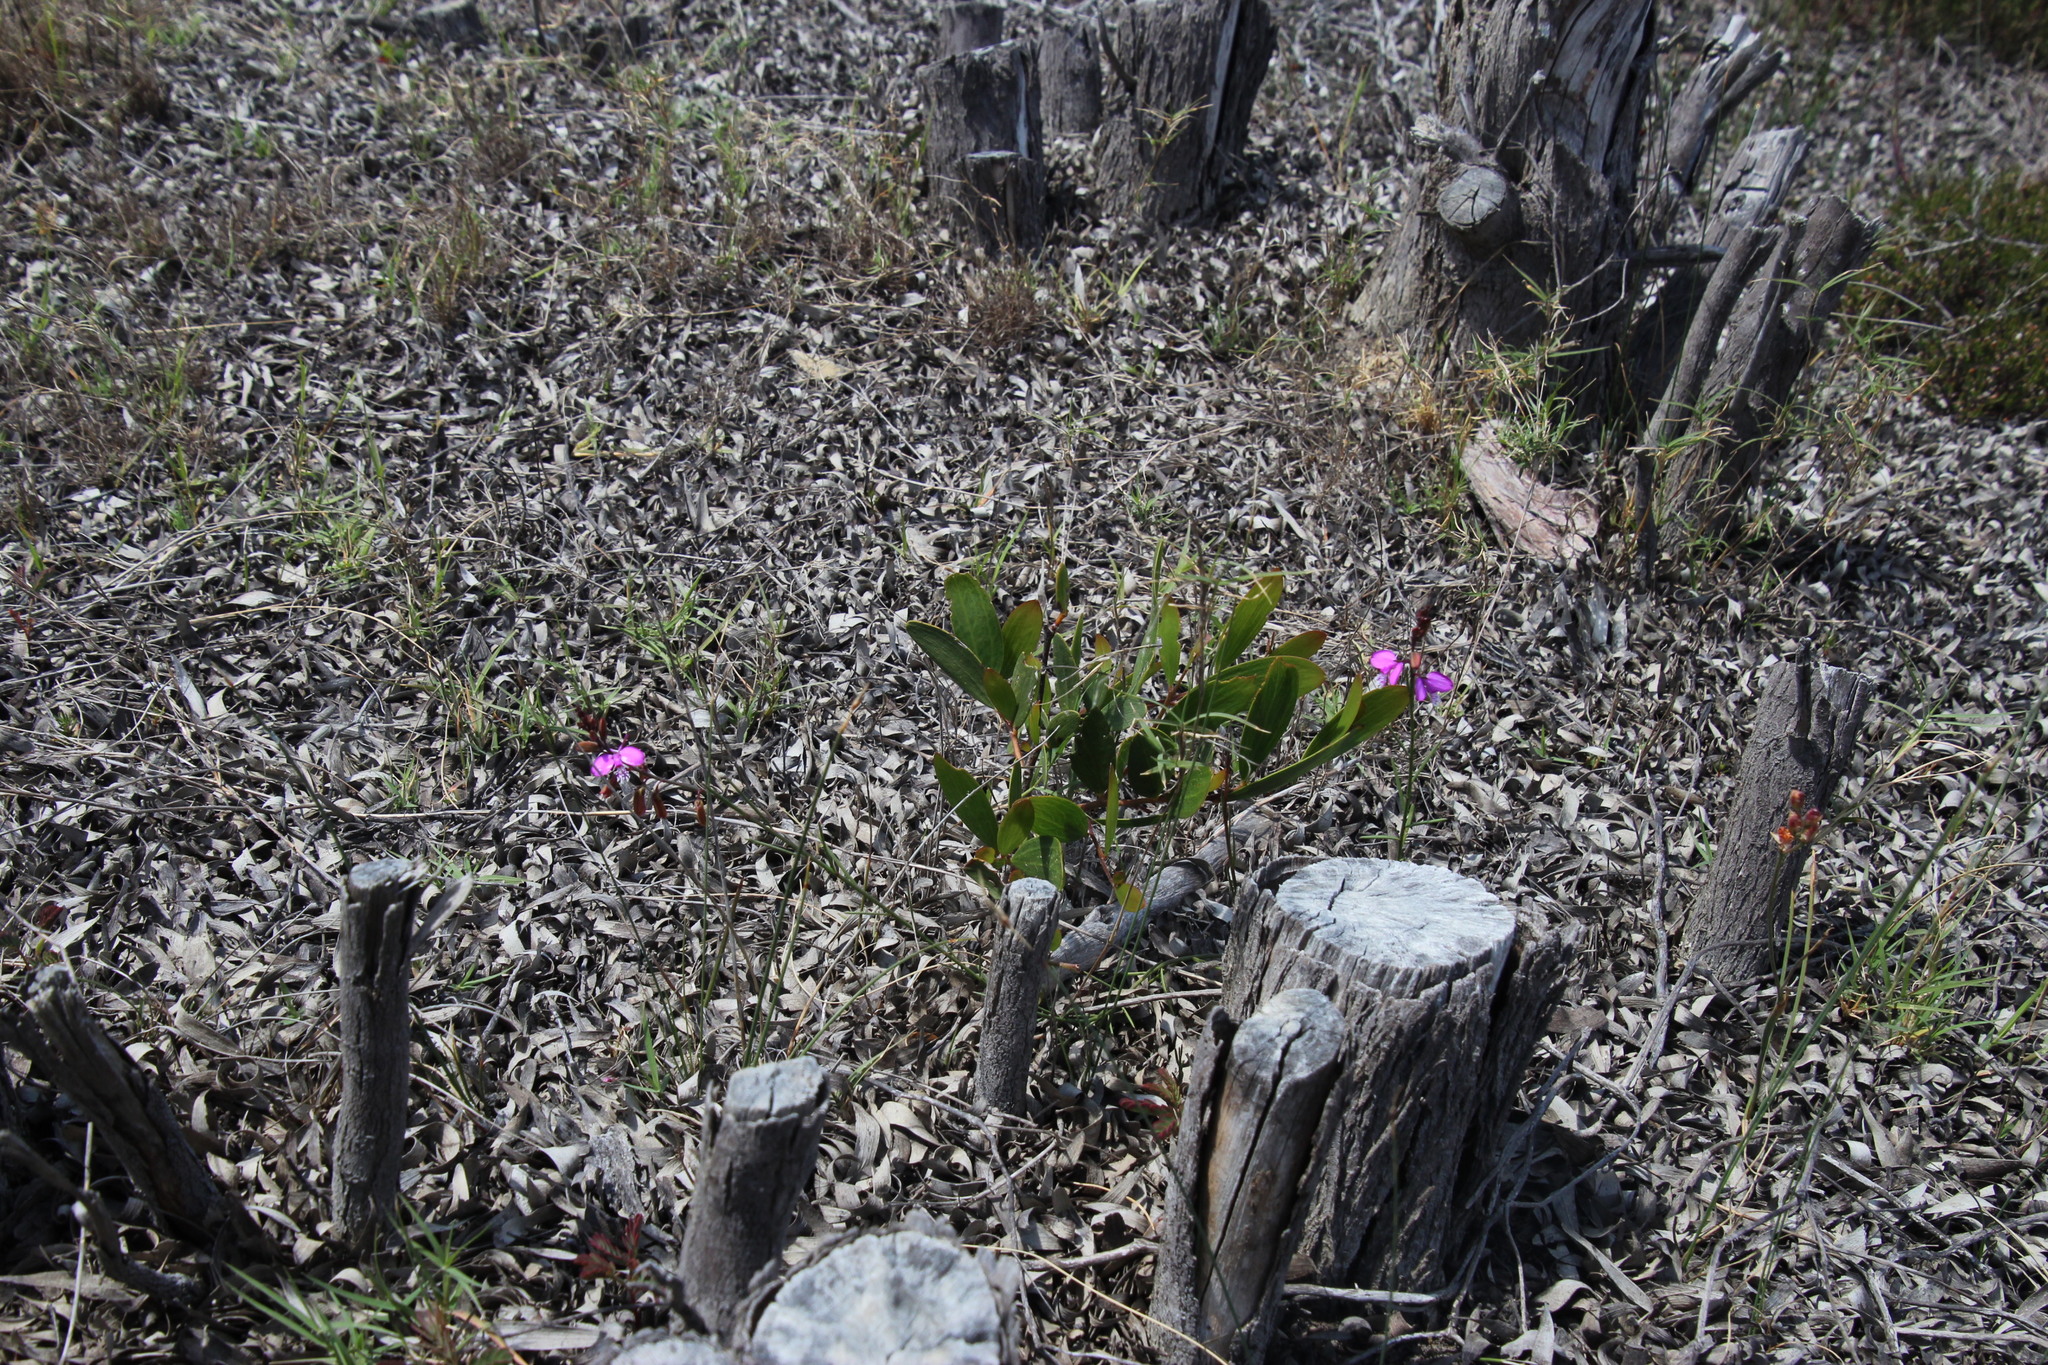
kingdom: Plantae
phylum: Tracheophyta
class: Magnoliopsida
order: Fabales
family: Polygalaceae
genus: Polygala
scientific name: Polygala garcini
